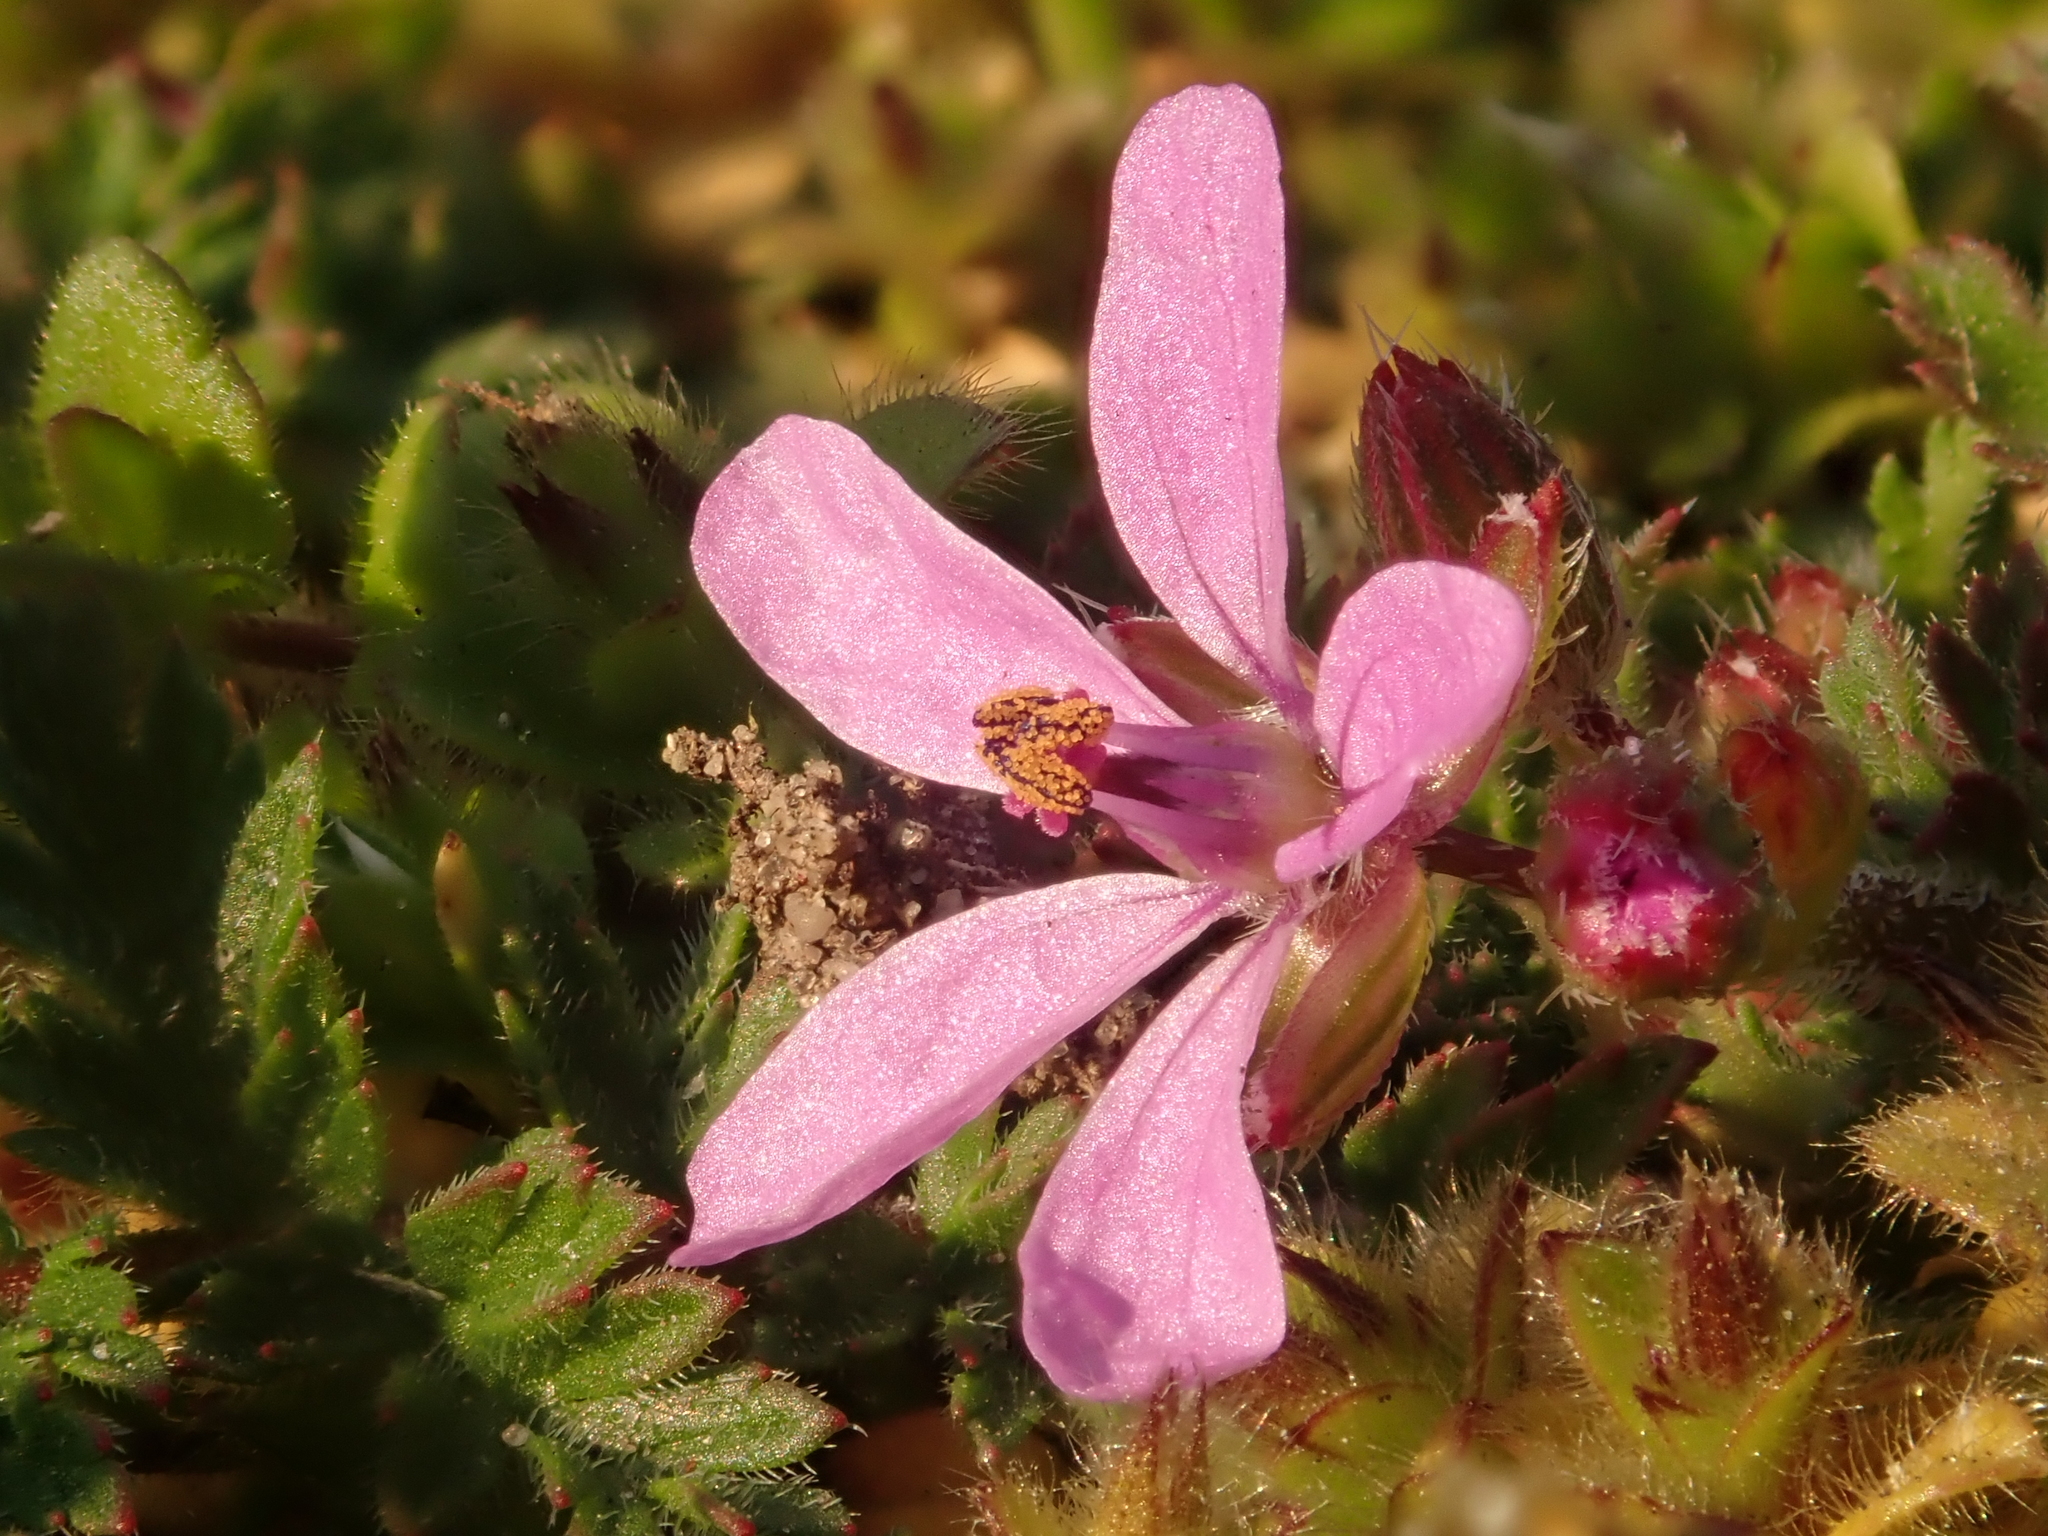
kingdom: Plantae
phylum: Tracheophyta
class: Magnoliopsida
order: Geraniales
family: Geraniaceae
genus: Erodium
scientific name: Erodium cicutarium
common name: Common stork's-bill
